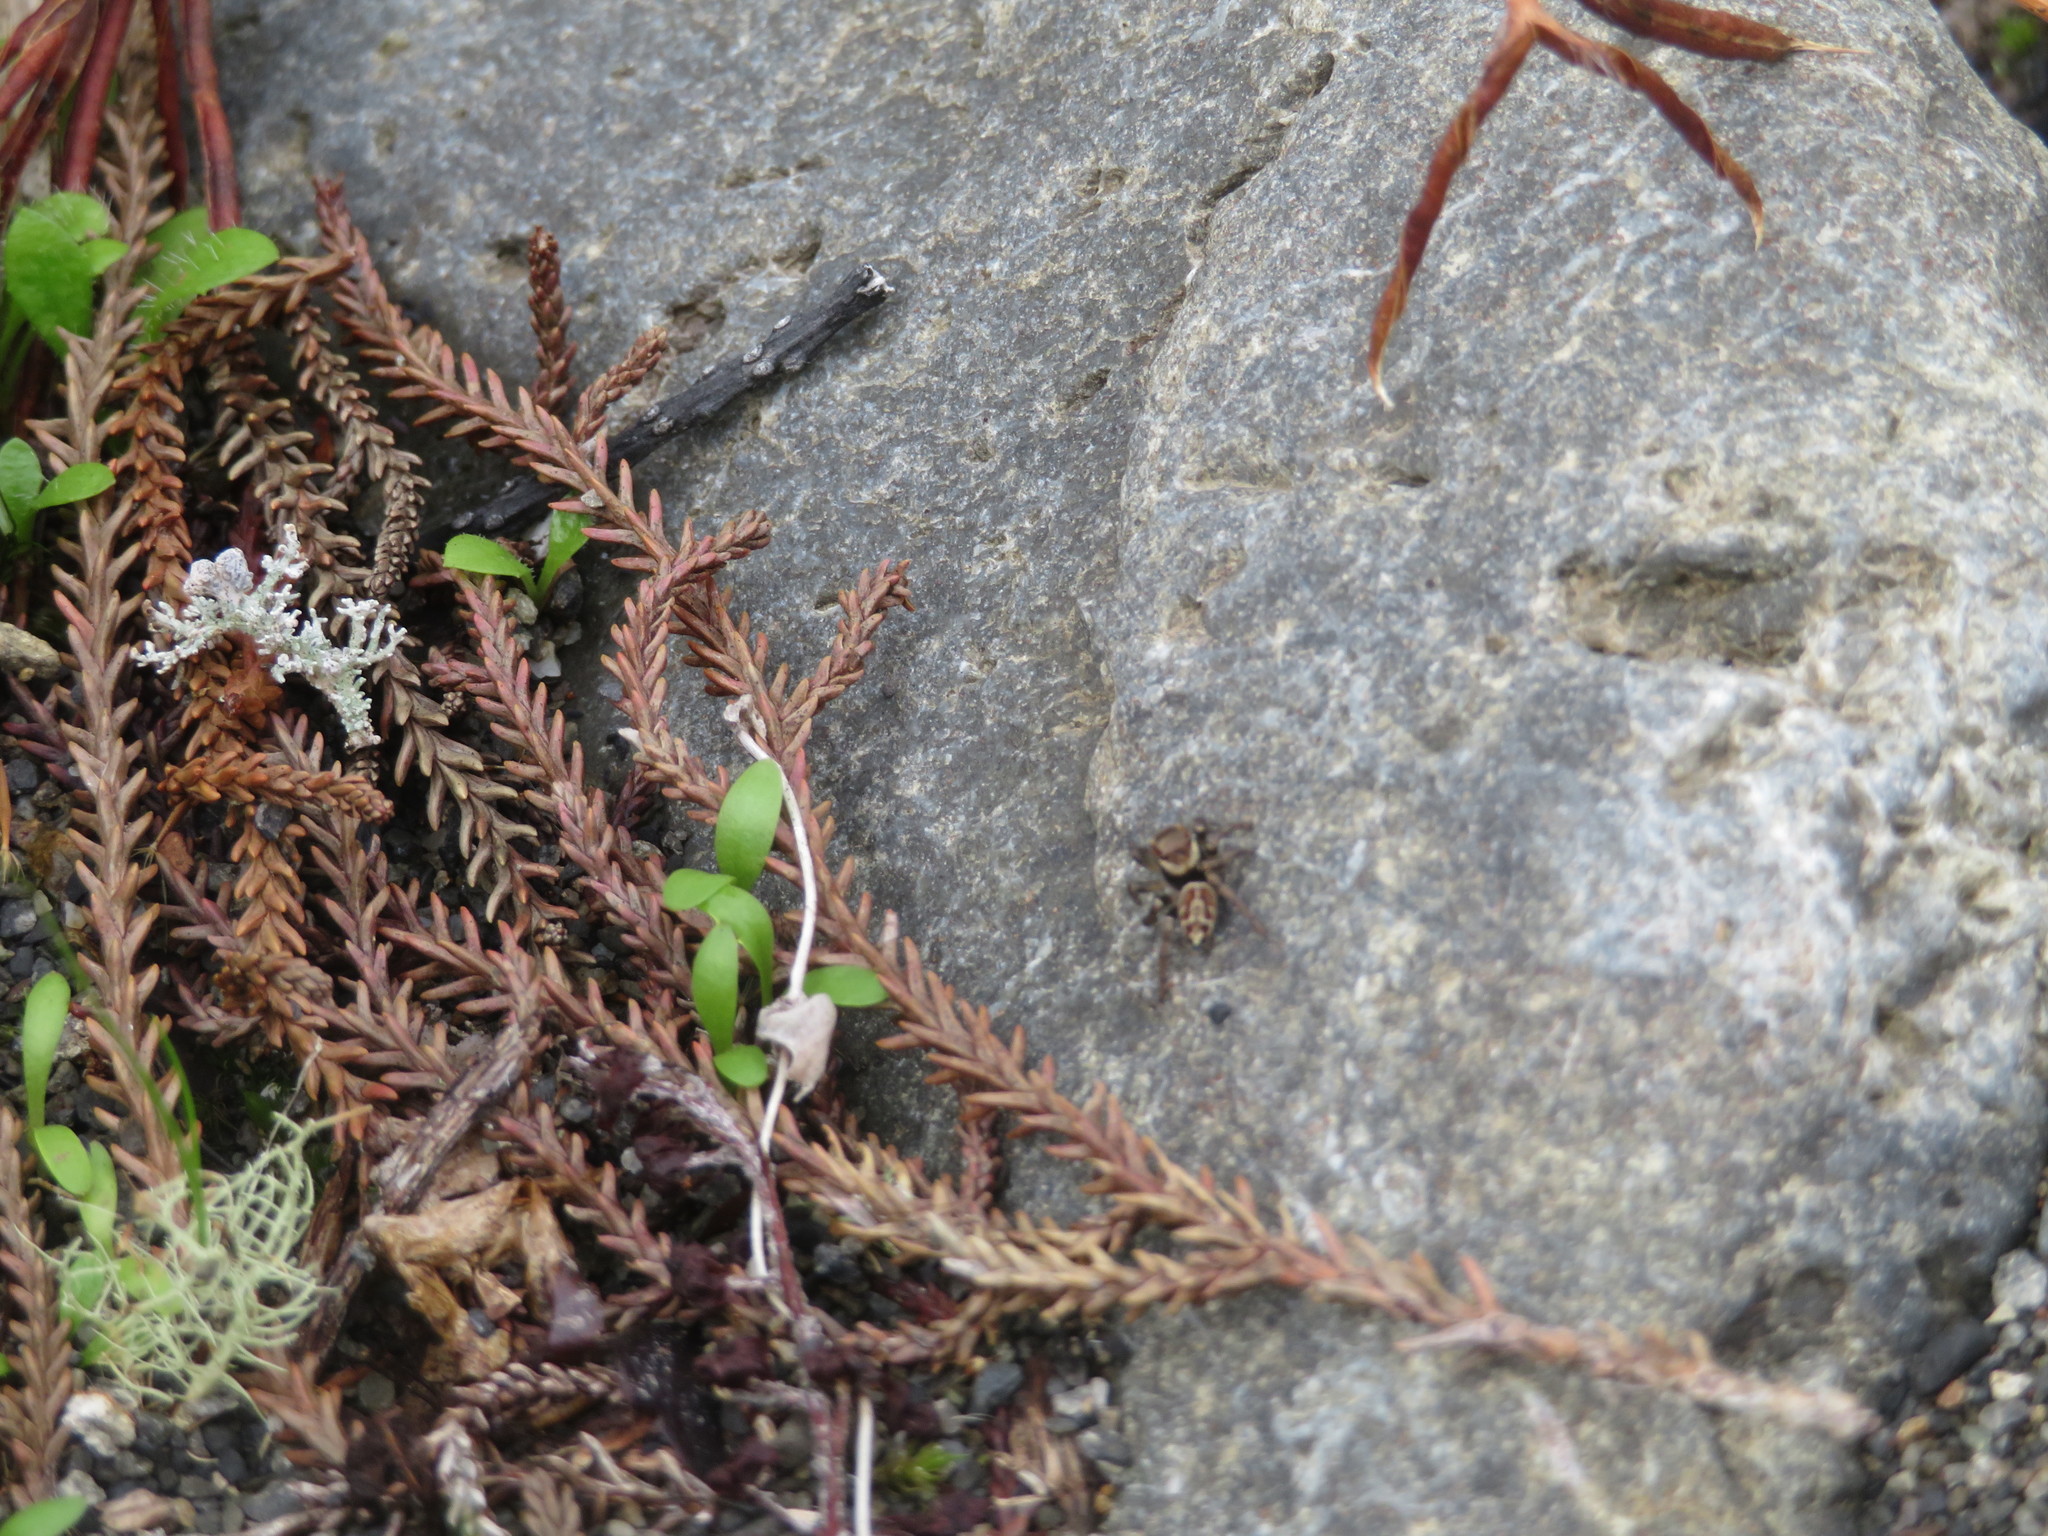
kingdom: Animalia
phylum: Arthropoda
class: Arachnida
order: Araneae
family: Salticidae
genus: Maratus
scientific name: Maratus griseus
